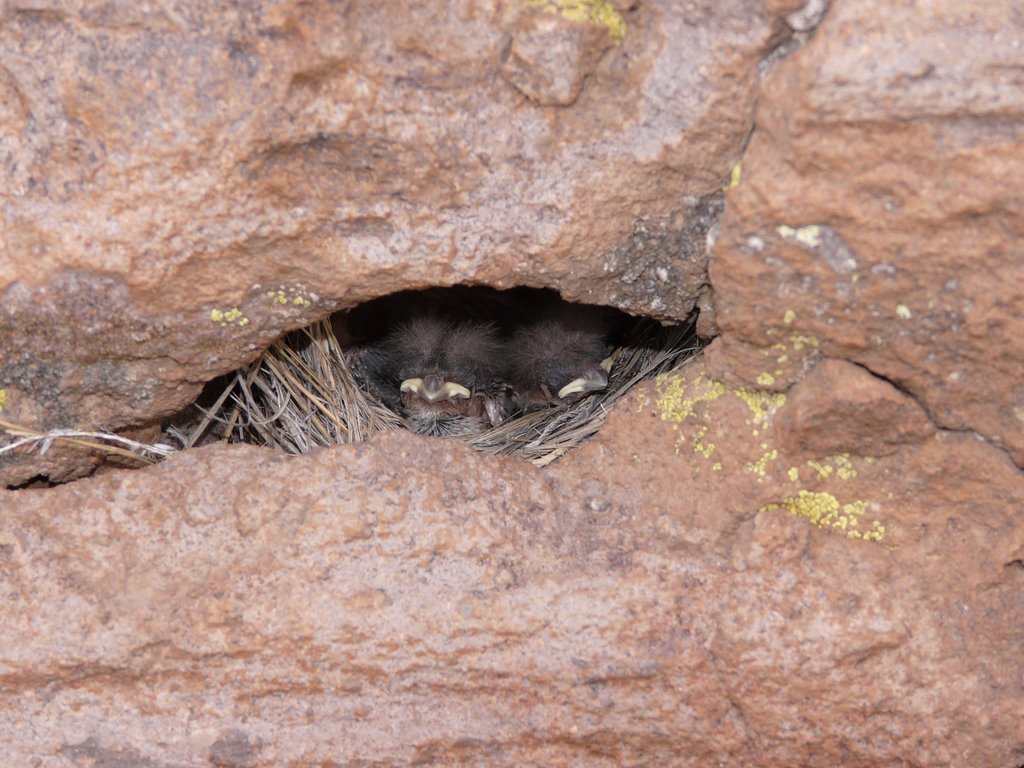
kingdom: Animalia
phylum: Chordata
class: Aves
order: Passeriformes
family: Thraupidae
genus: Diuca
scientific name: Diuca diuca
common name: Common diuca finch
